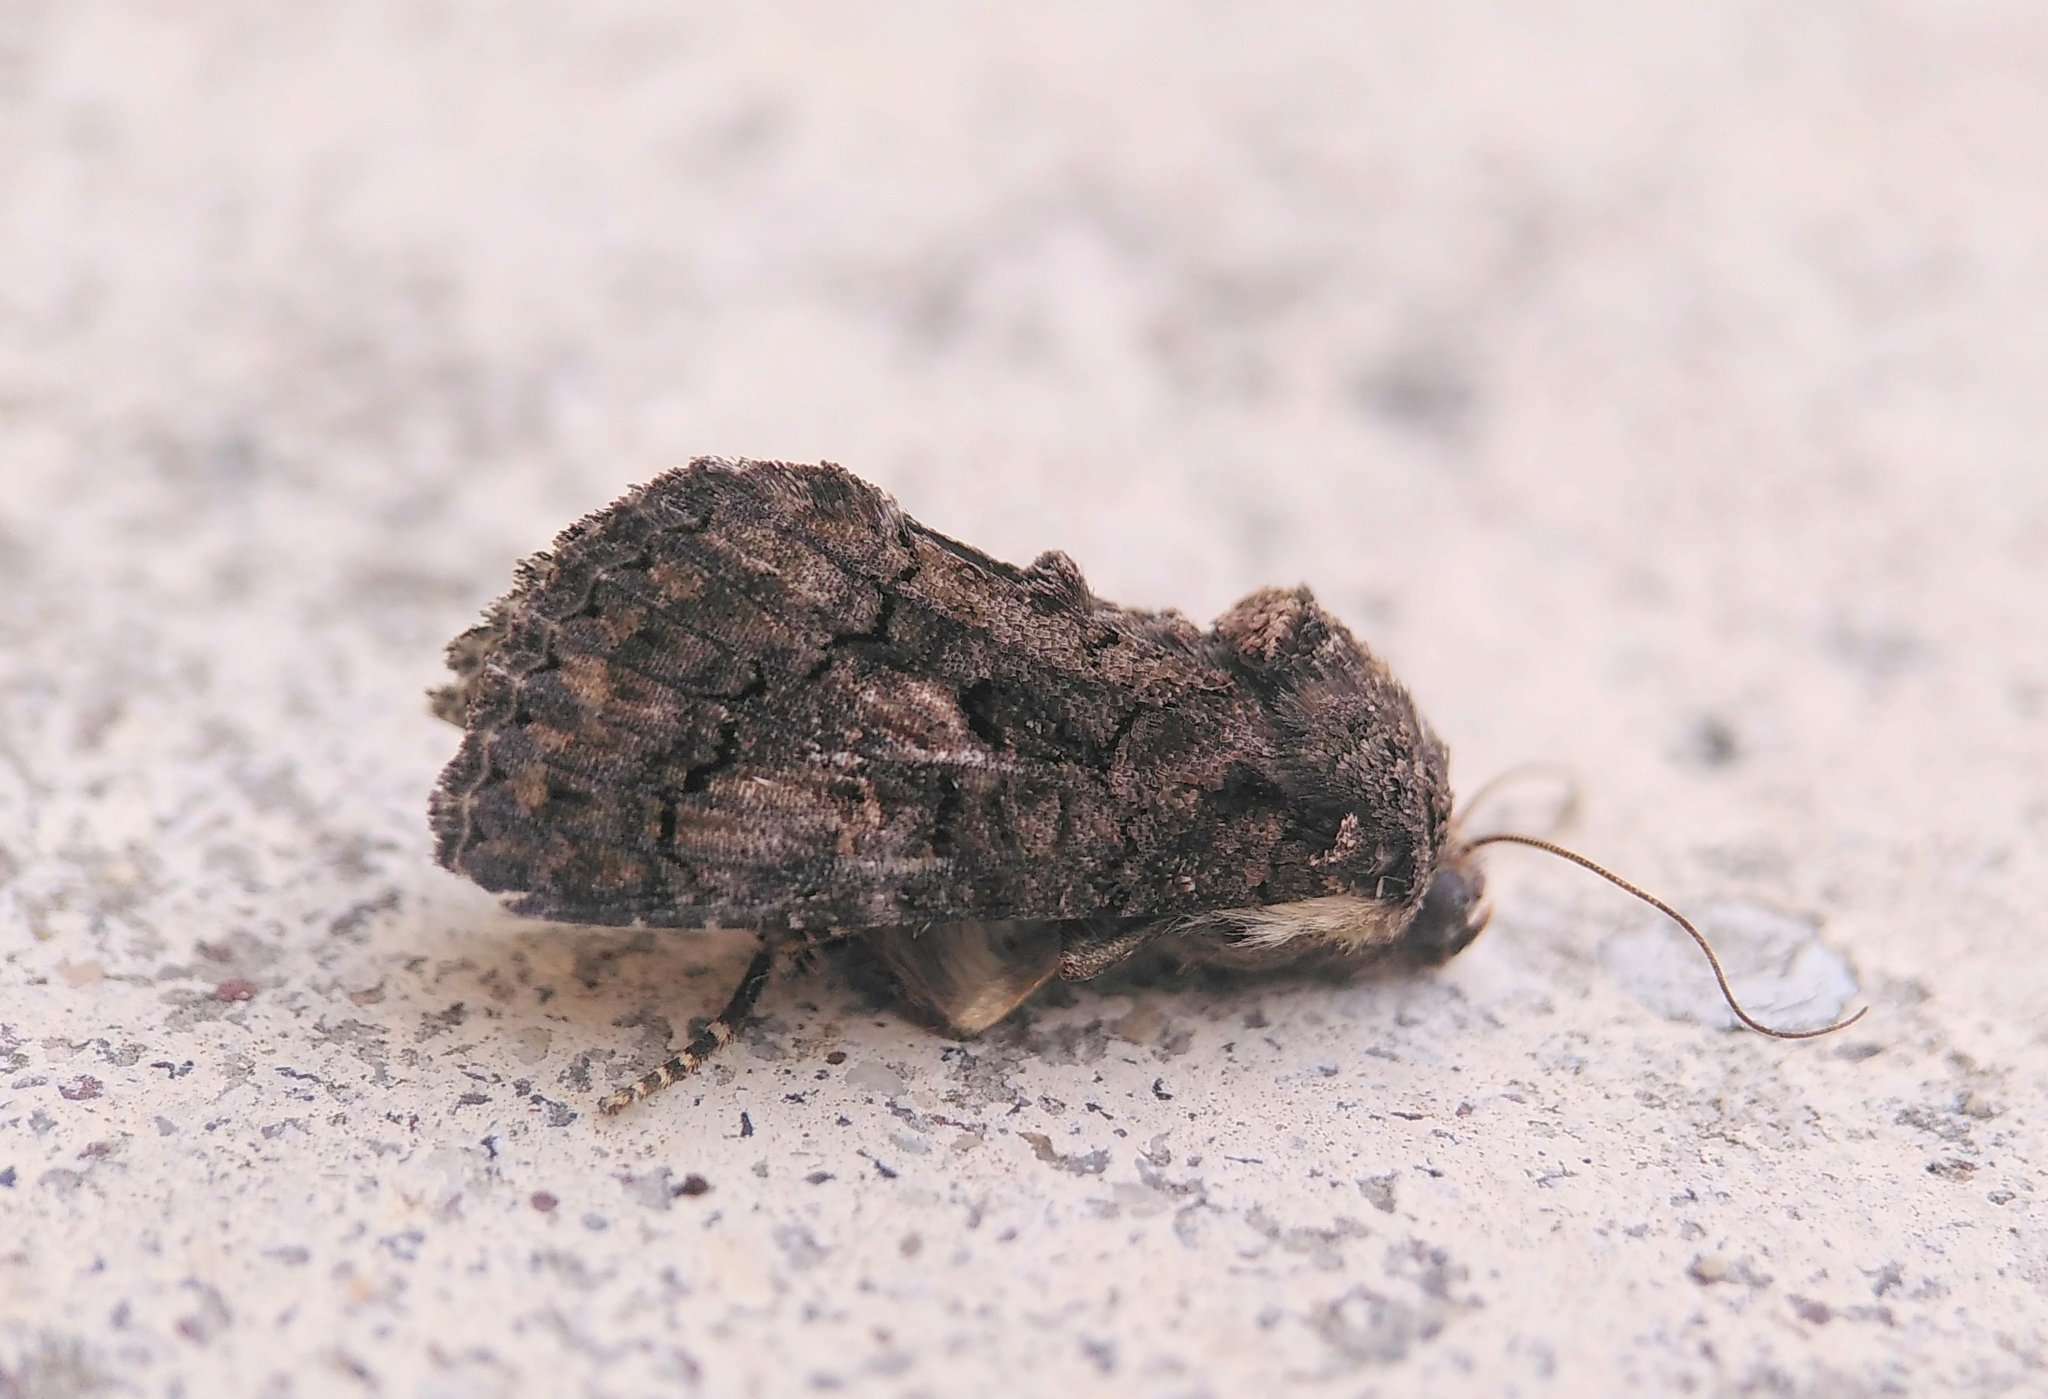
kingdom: Animalia
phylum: Arthropoda
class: Insecta
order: Lepidoptera
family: Noctuidae
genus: Aedia
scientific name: Aedia leucomelas
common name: Sorcerer
